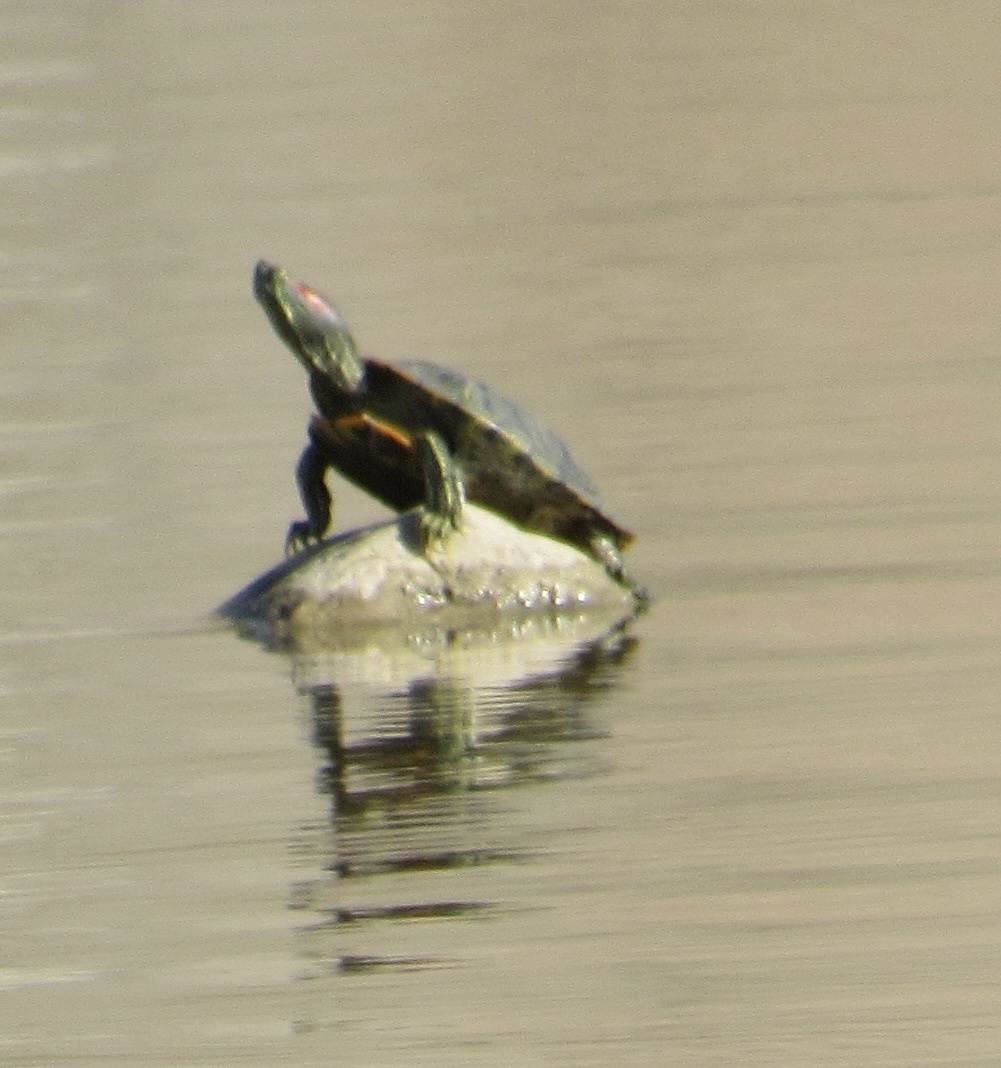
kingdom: Animalia
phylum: Chordata
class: Testudines
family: Emydidae
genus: Trachemys
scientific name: Trachemys scripta
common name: Slider
